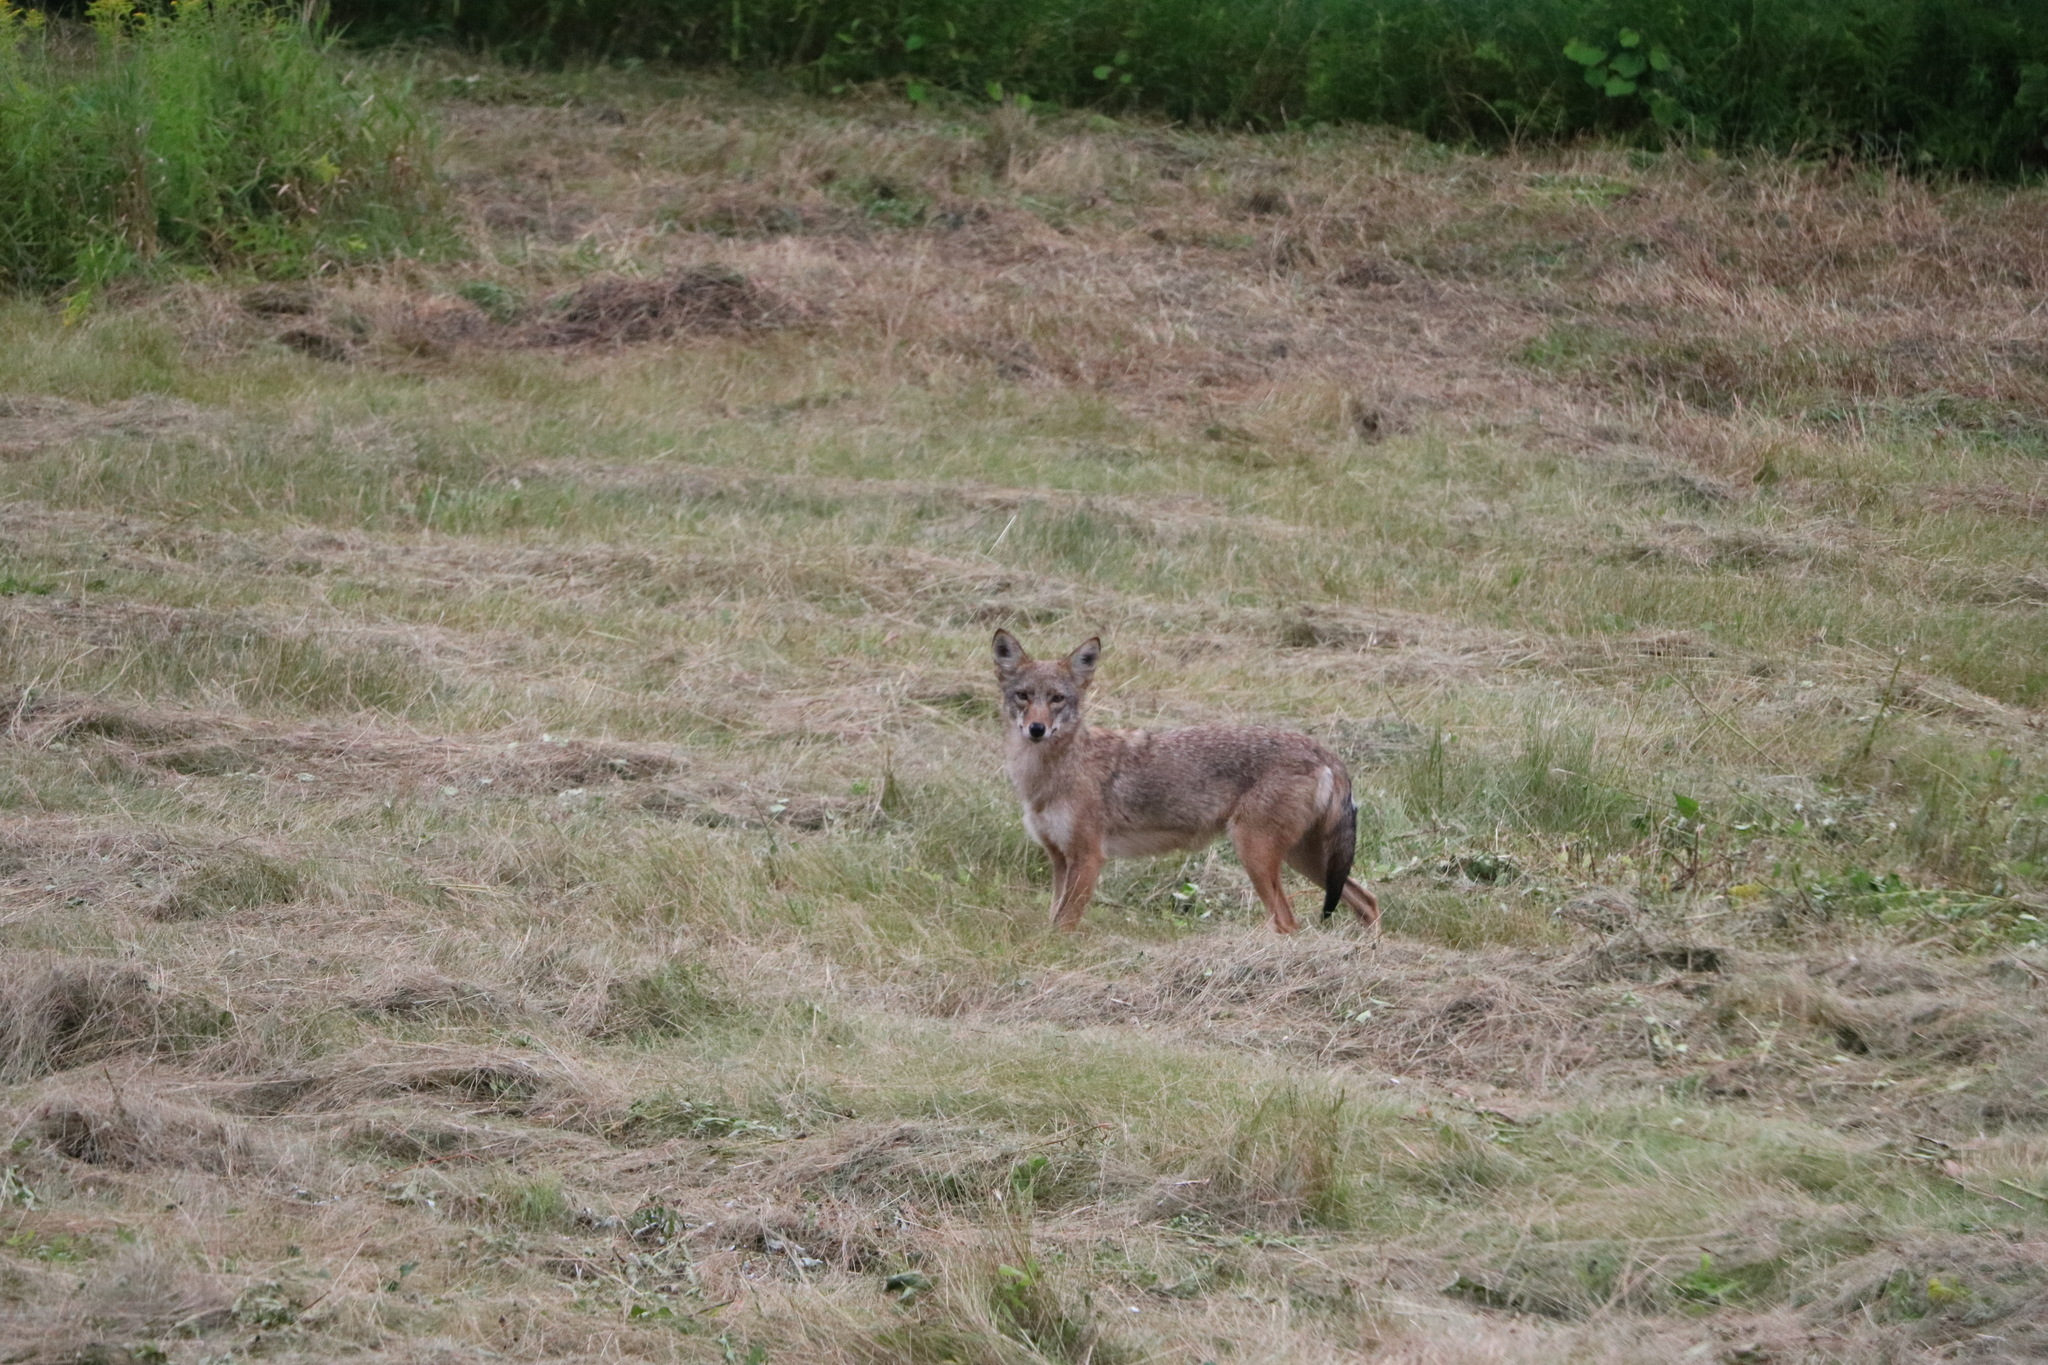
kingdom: Animalia
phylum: Chordata
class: Mammalia
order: Carnivora
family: Canidae
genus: Canis
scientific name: Canis latrans
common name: Coyote
